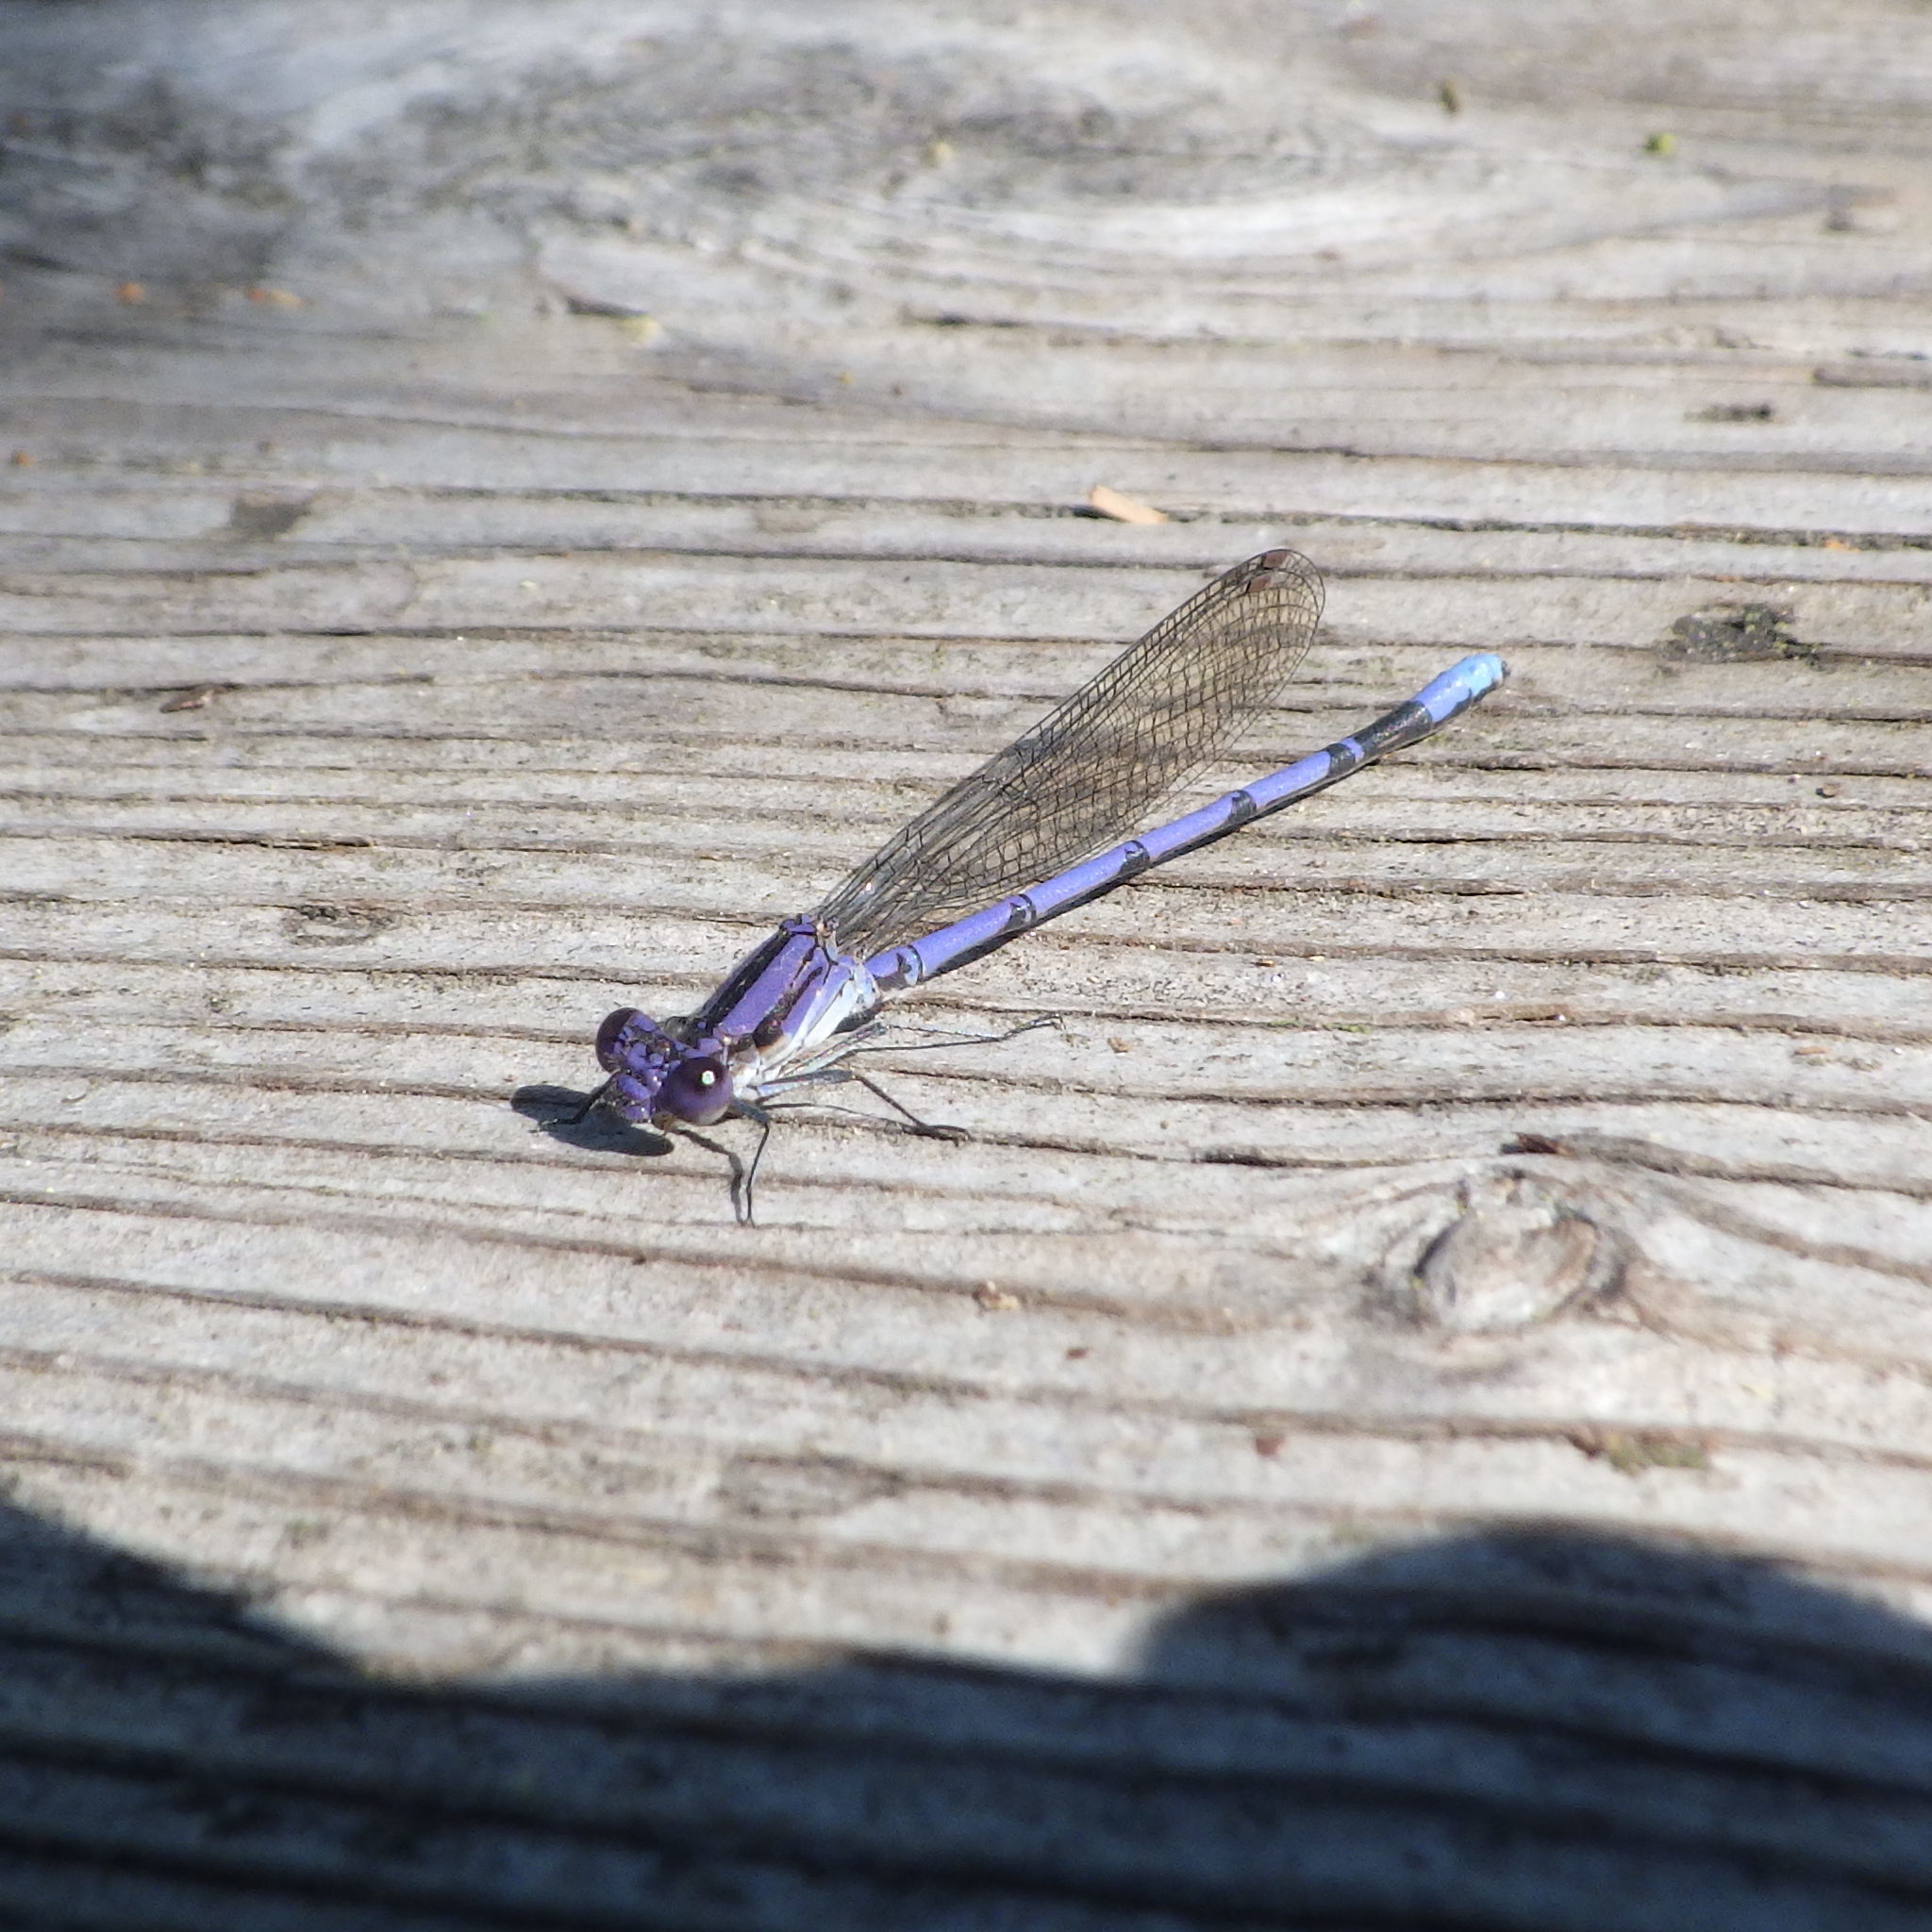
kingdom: Animalia
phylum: Arthropoda
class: Insecta
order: Odonata
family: Coenagrionidae
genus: Argia
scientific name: Argia fumipennis
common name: Variable dancer
